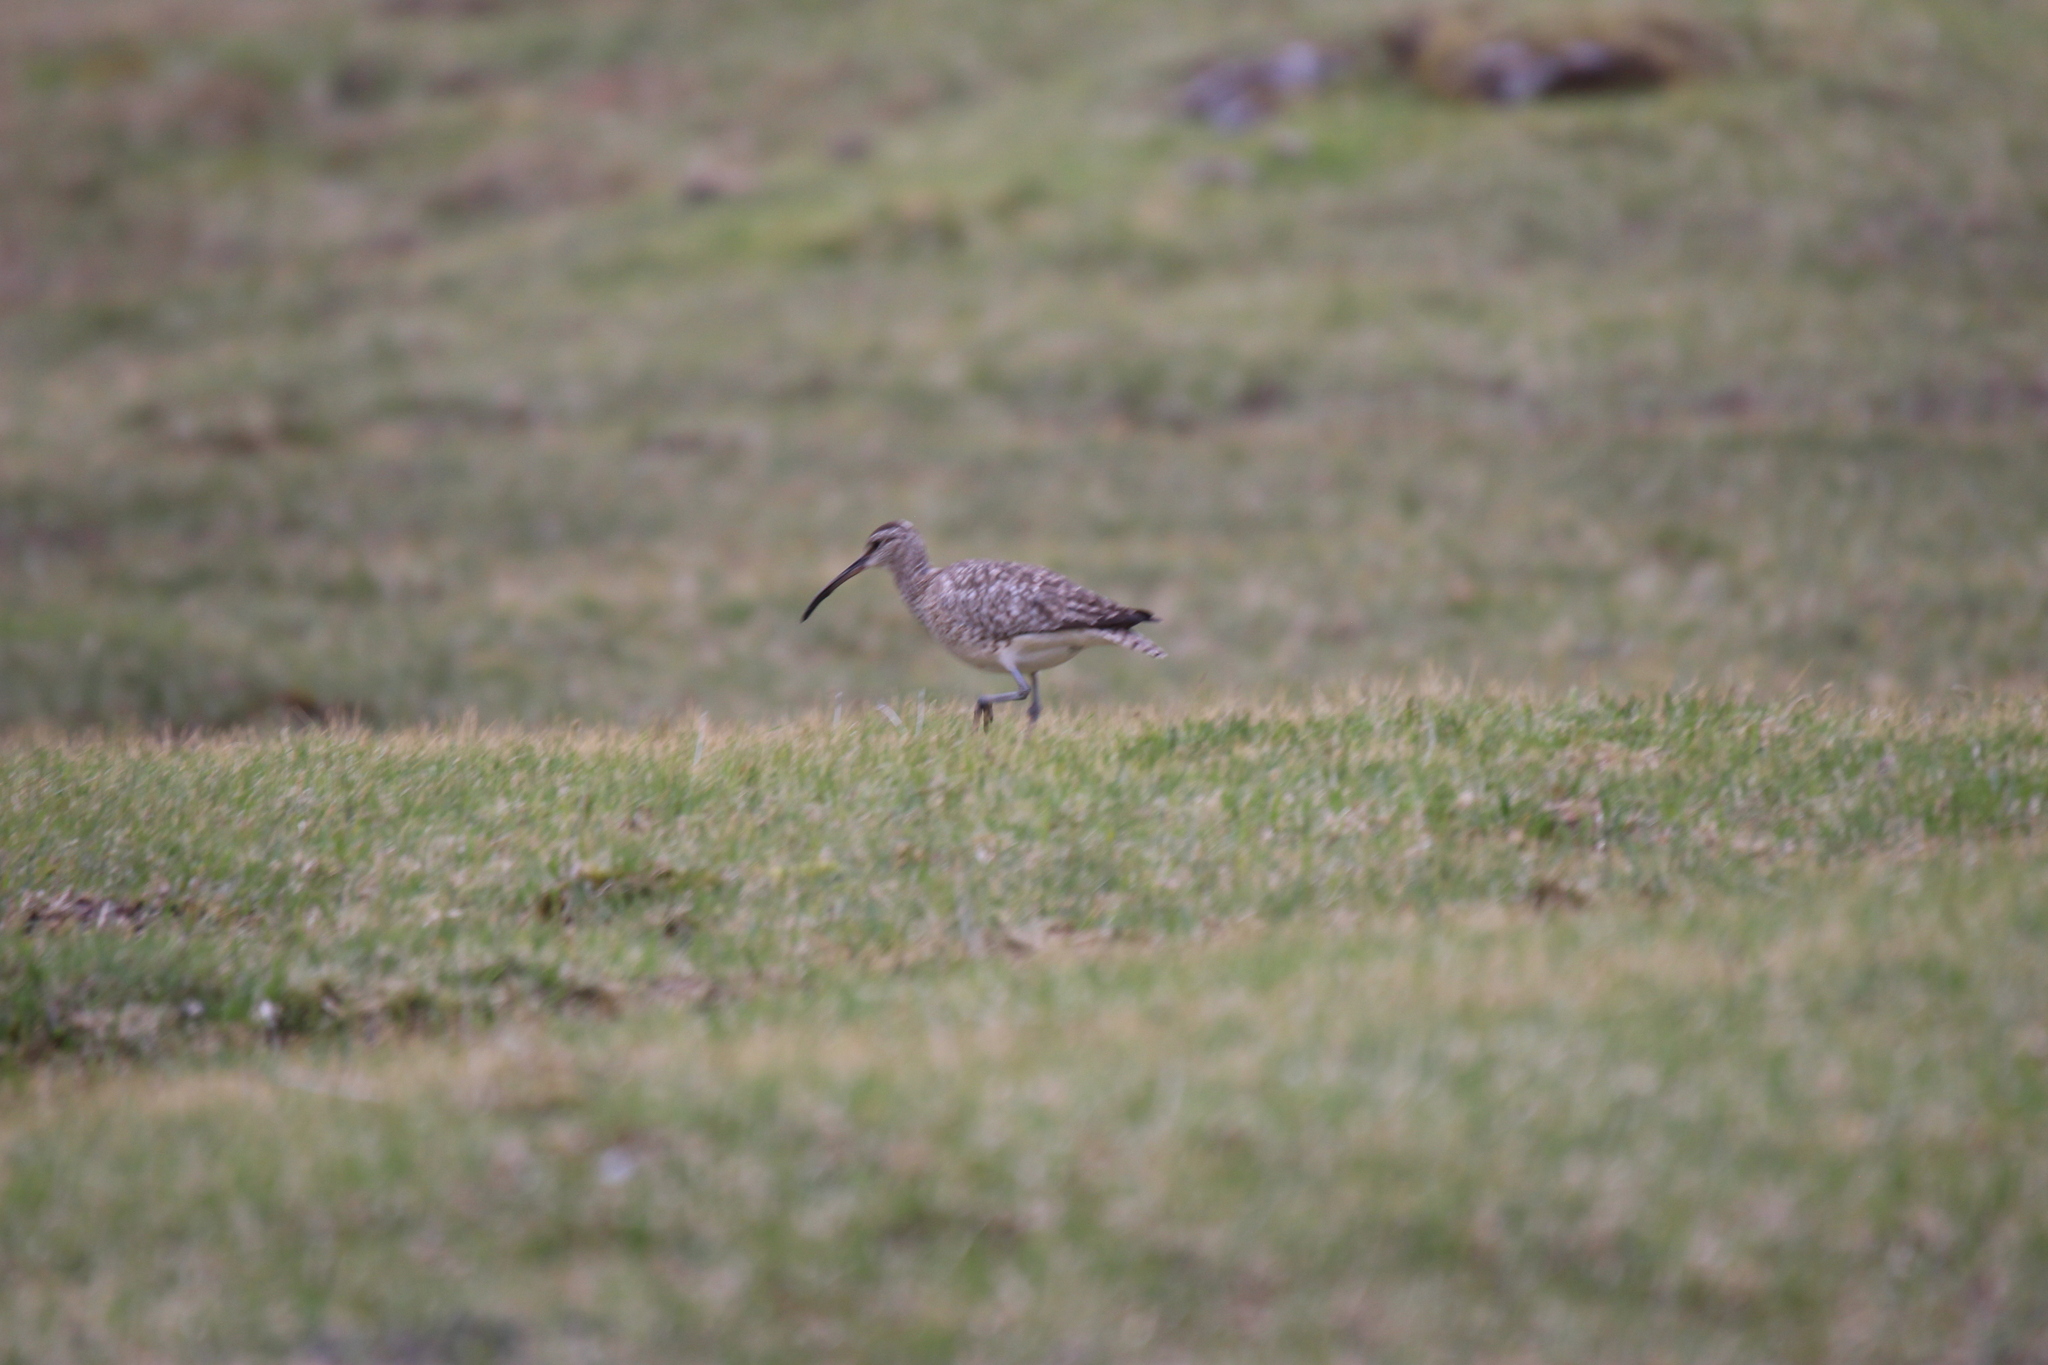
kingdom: Animalia
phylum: Chordata
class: Aves
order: Charadriiformes
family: Scolopacidae
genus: Numenius
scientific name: Numenius phaeopus
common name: Whimbrel
